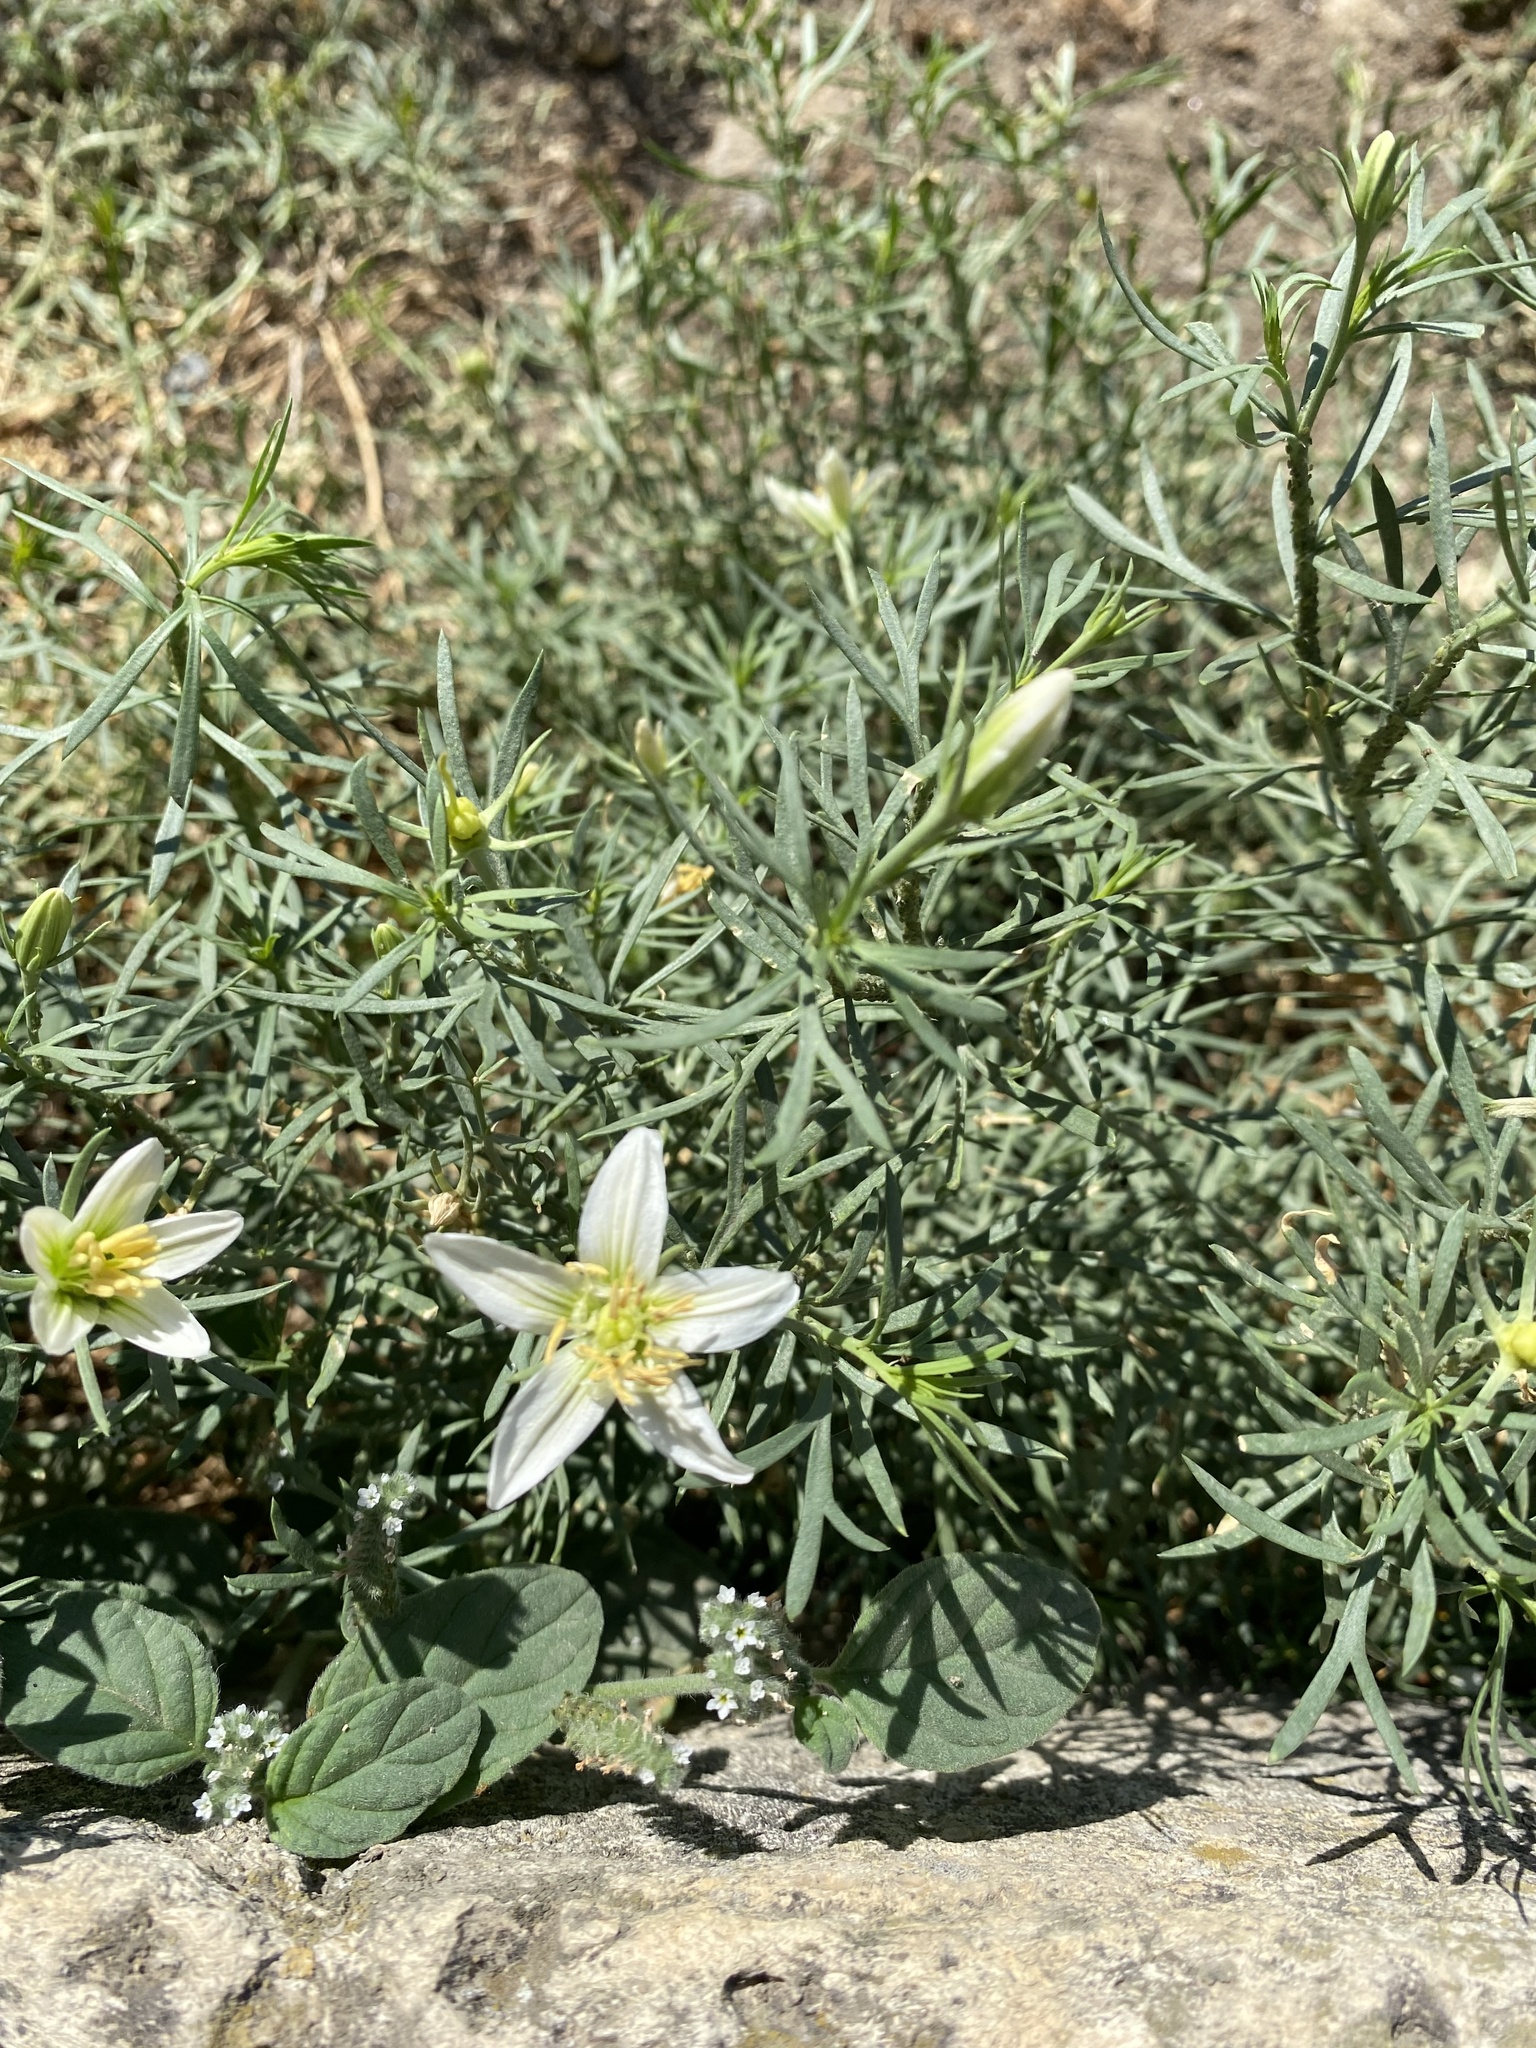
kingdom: Plantae
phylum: Tracheophyta
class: Magnoliopsida
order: Sapindales
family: Tetradiclidaceae
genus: Peganum
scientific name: Peganum harmala
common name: Harmal peganum
